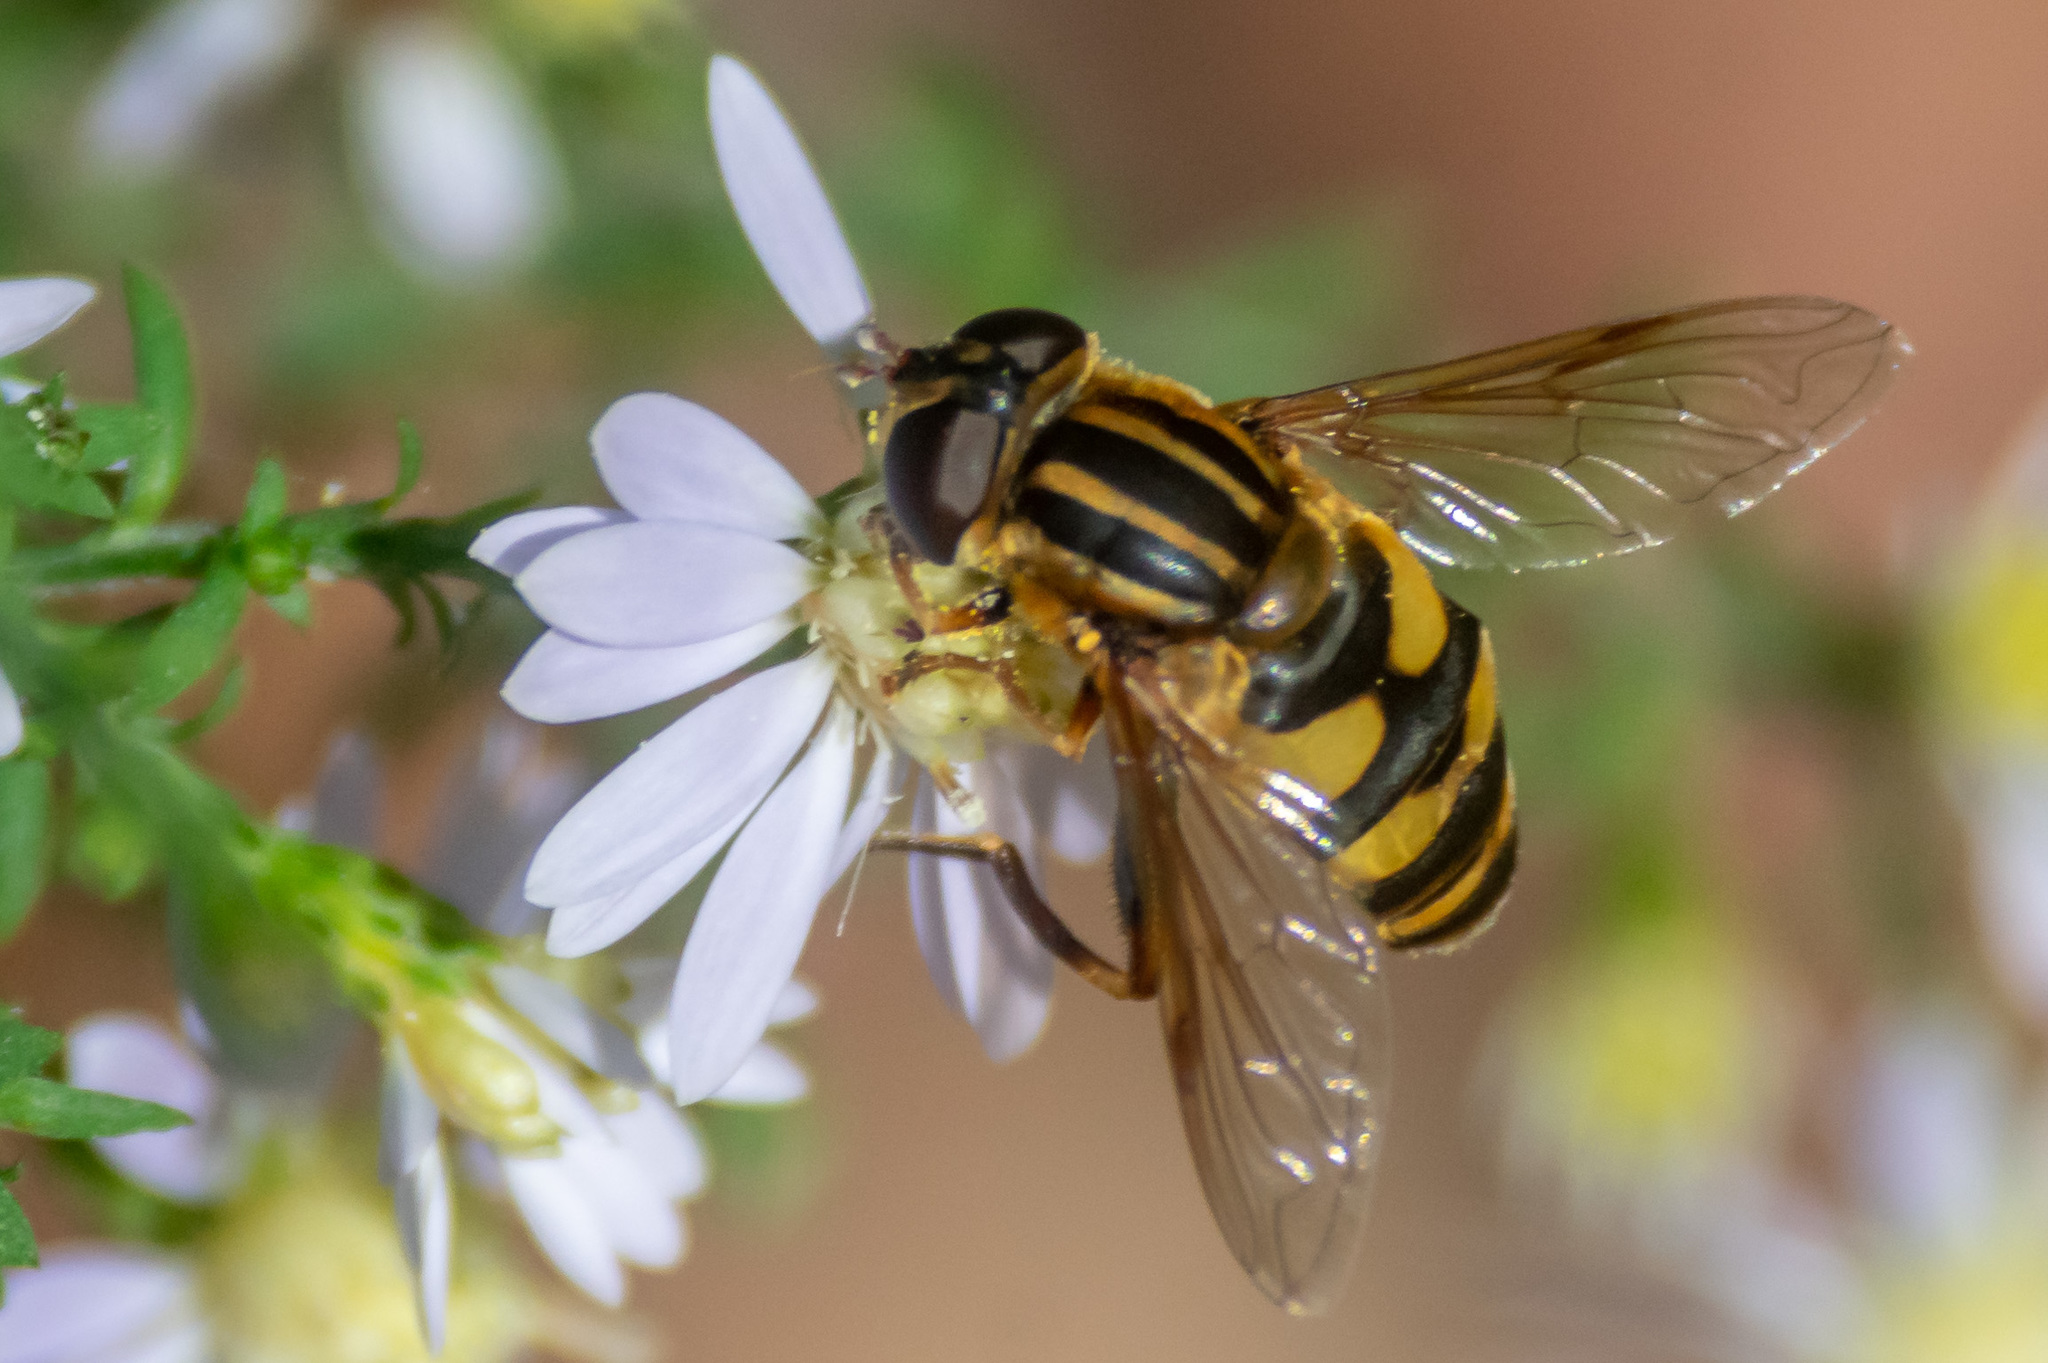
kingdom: Animalia
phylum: Arthropoda
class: Insecta
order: Diptera
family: Syrphidae
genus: Helophilus
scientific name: Helophilus fasciatus
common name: Narrow-headed marsh fly
